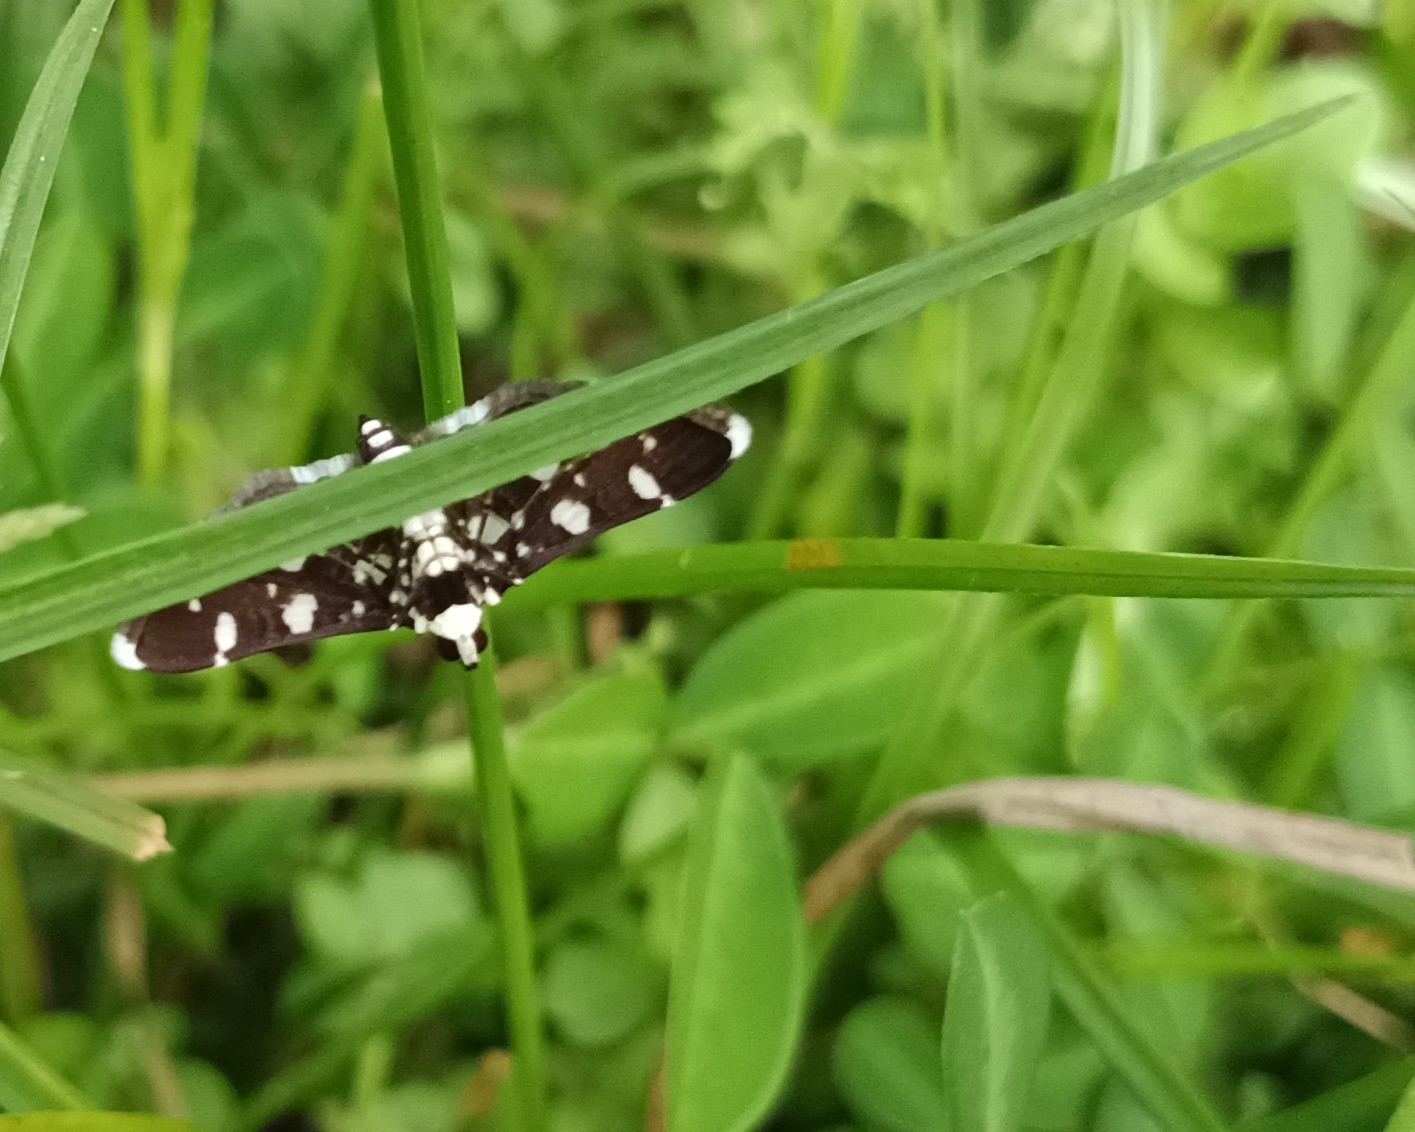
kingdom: Animalia
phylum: Arthropoda
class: Insecta
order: Lepidoptera
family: Crambidae
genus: Bocchoris
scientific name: Bocchoris inspersalis
